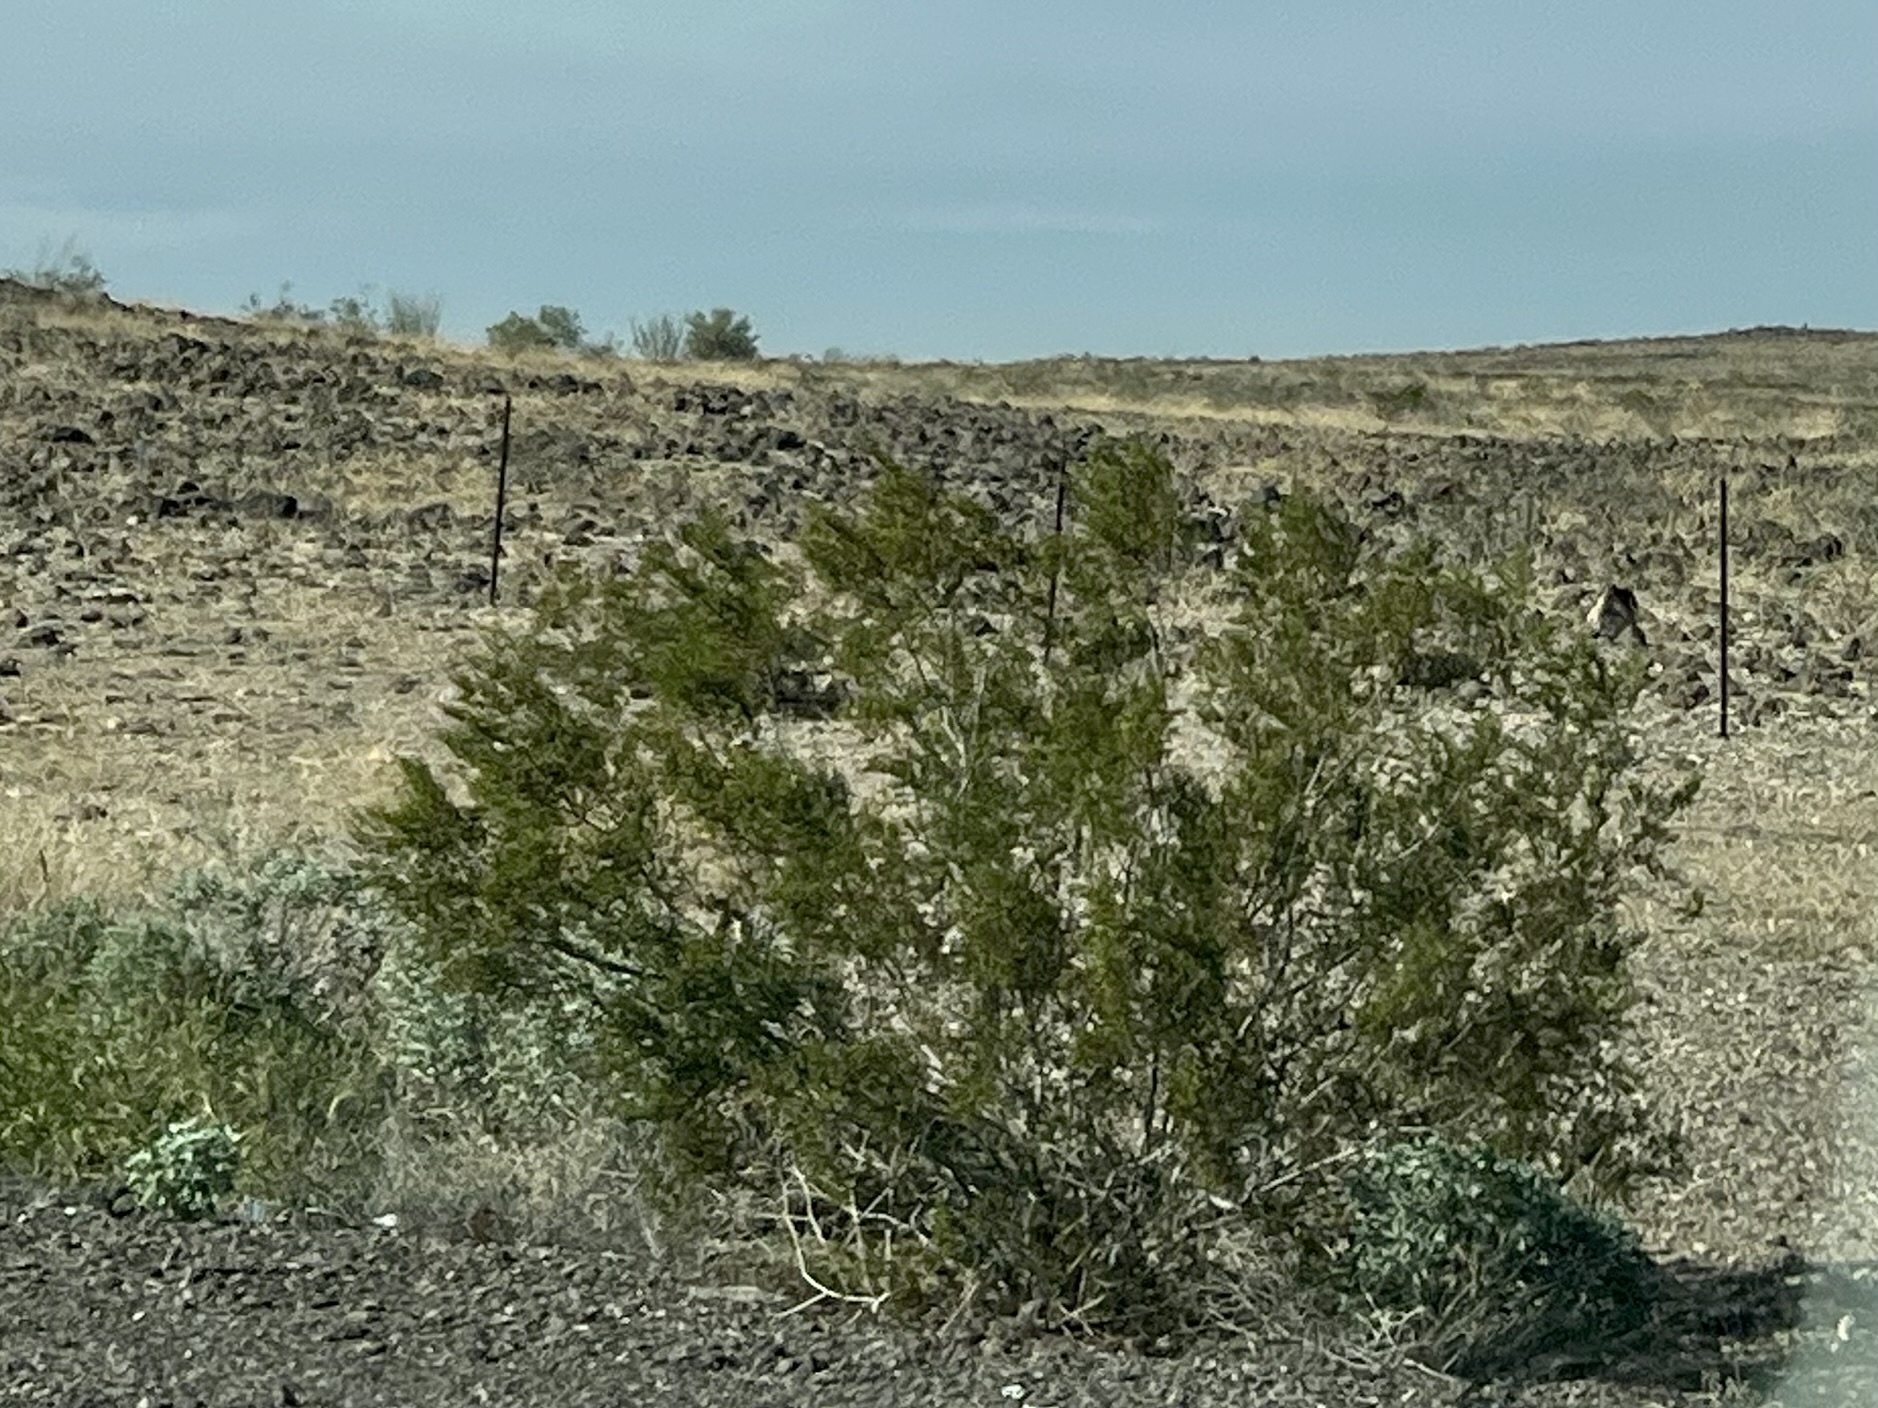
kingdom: Plantae
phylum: Tracheophyta
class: Magnoliopsida
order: Zygophyllales
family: Zygophyllaceae
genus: Larrea
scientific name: Larrea tridentata
